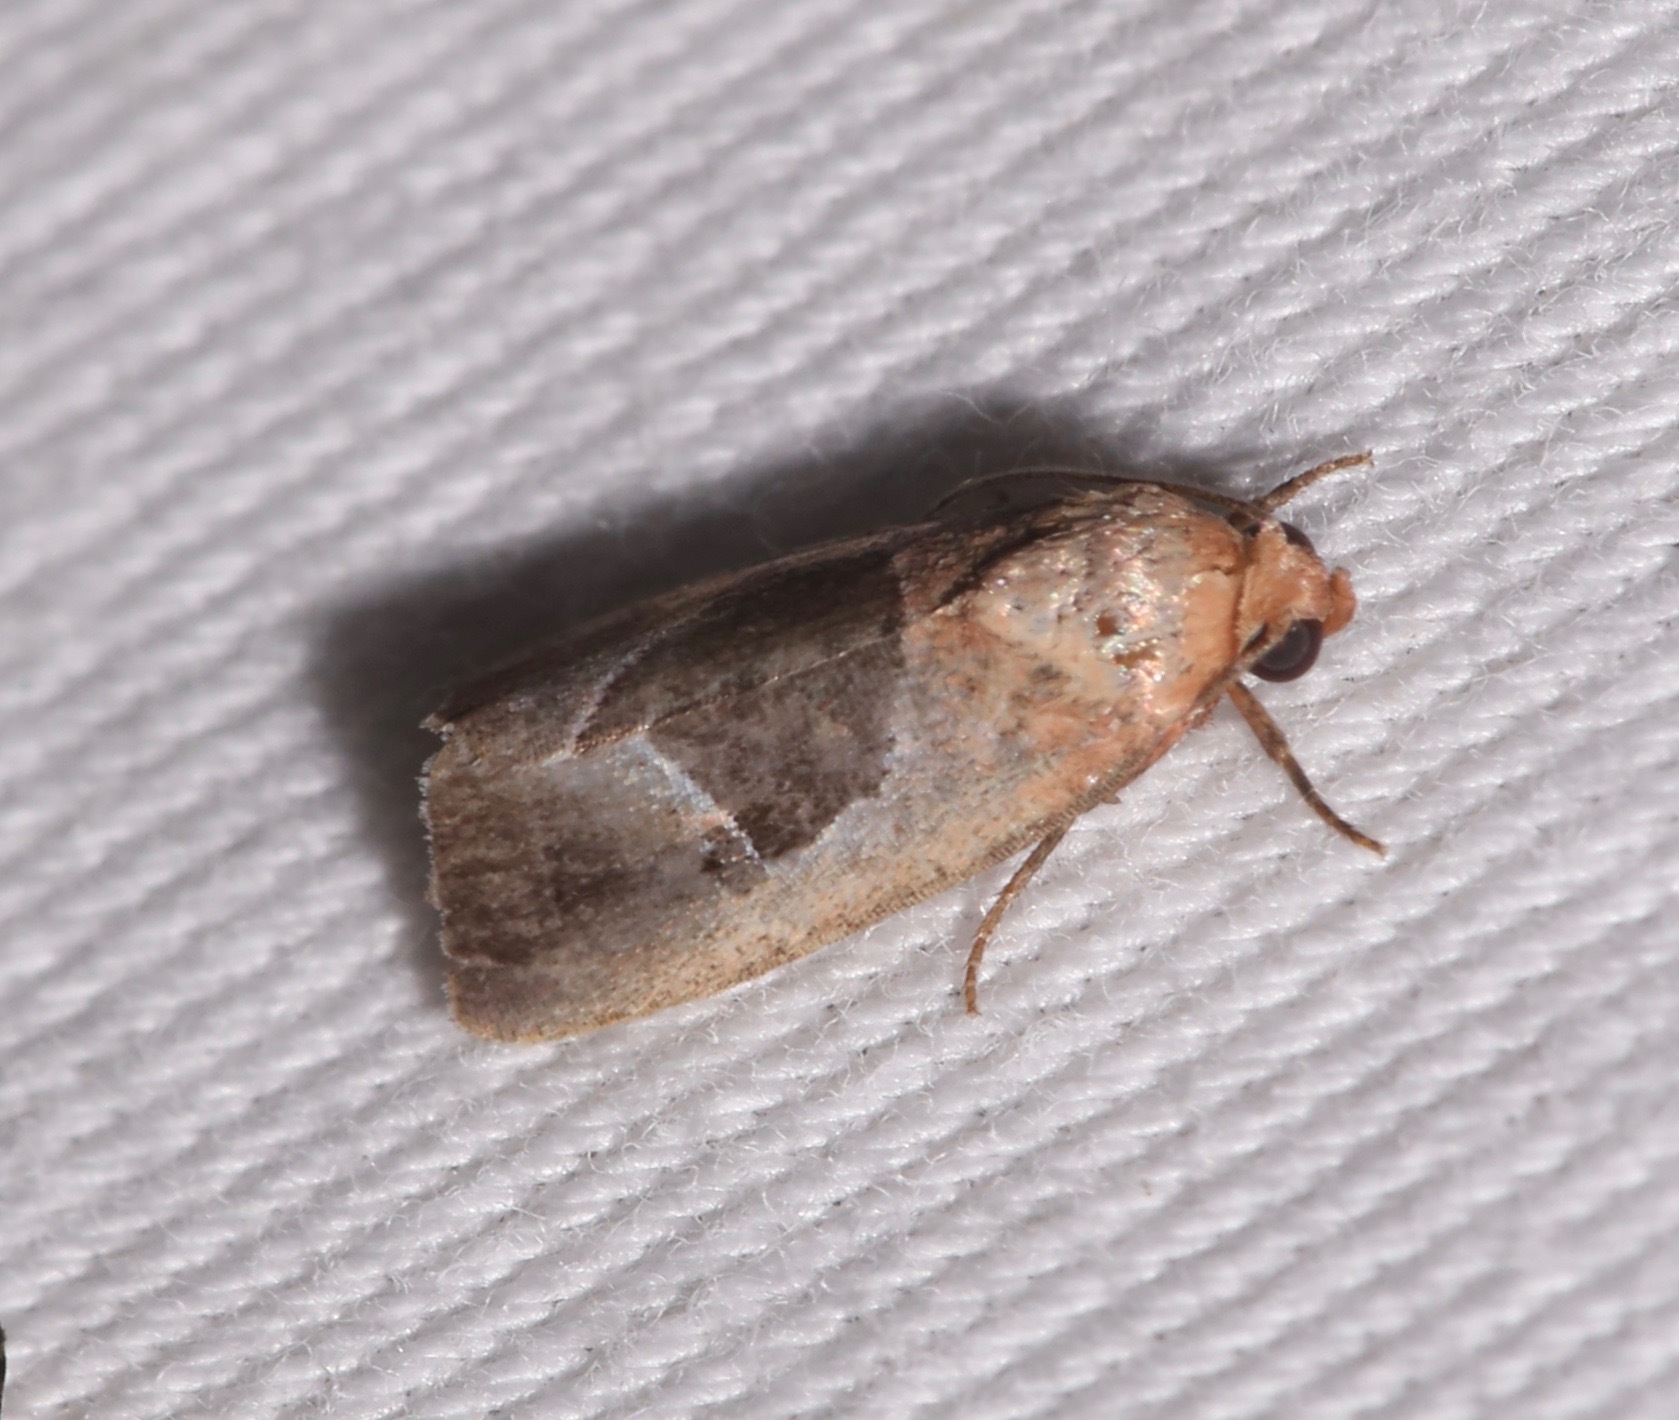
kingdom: Animalia
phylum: Arthropoda
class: Insecta
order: Lepidoptera
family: Noctuidae
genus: Elaphria
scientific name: Elaphria deltoides
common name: Cutworm moth
